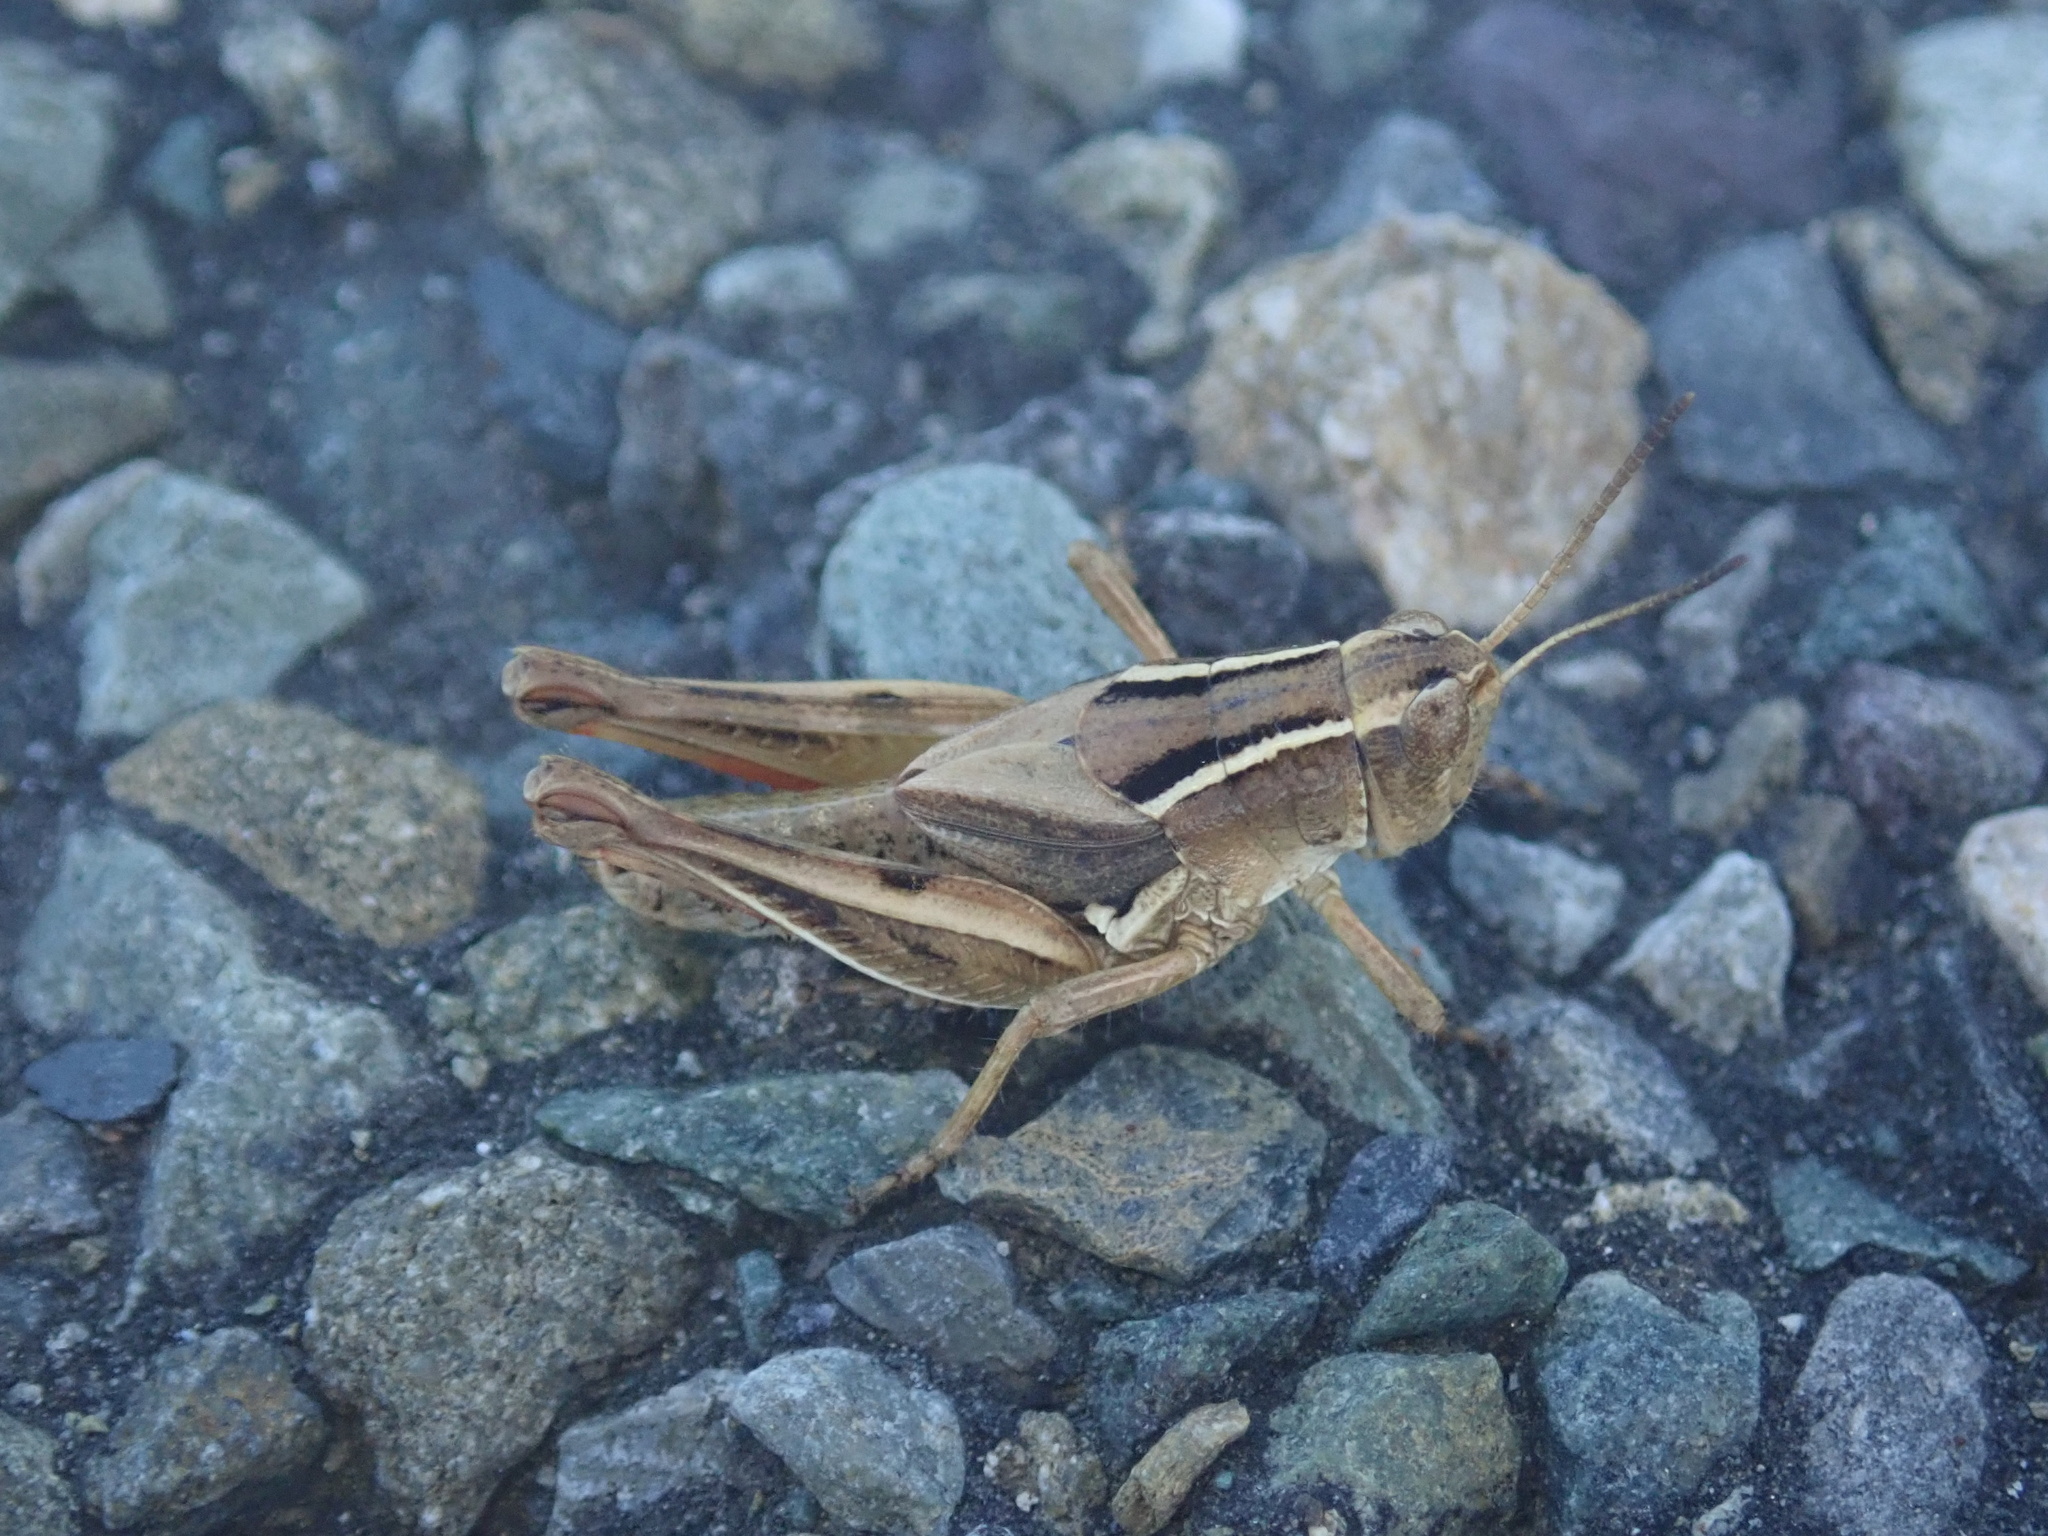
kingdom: Animalia
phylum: Arthropoda
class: Insecta
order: Orthoptera
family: Acrididae
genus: Phaulacridium
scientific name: Phaulacridium marginale
